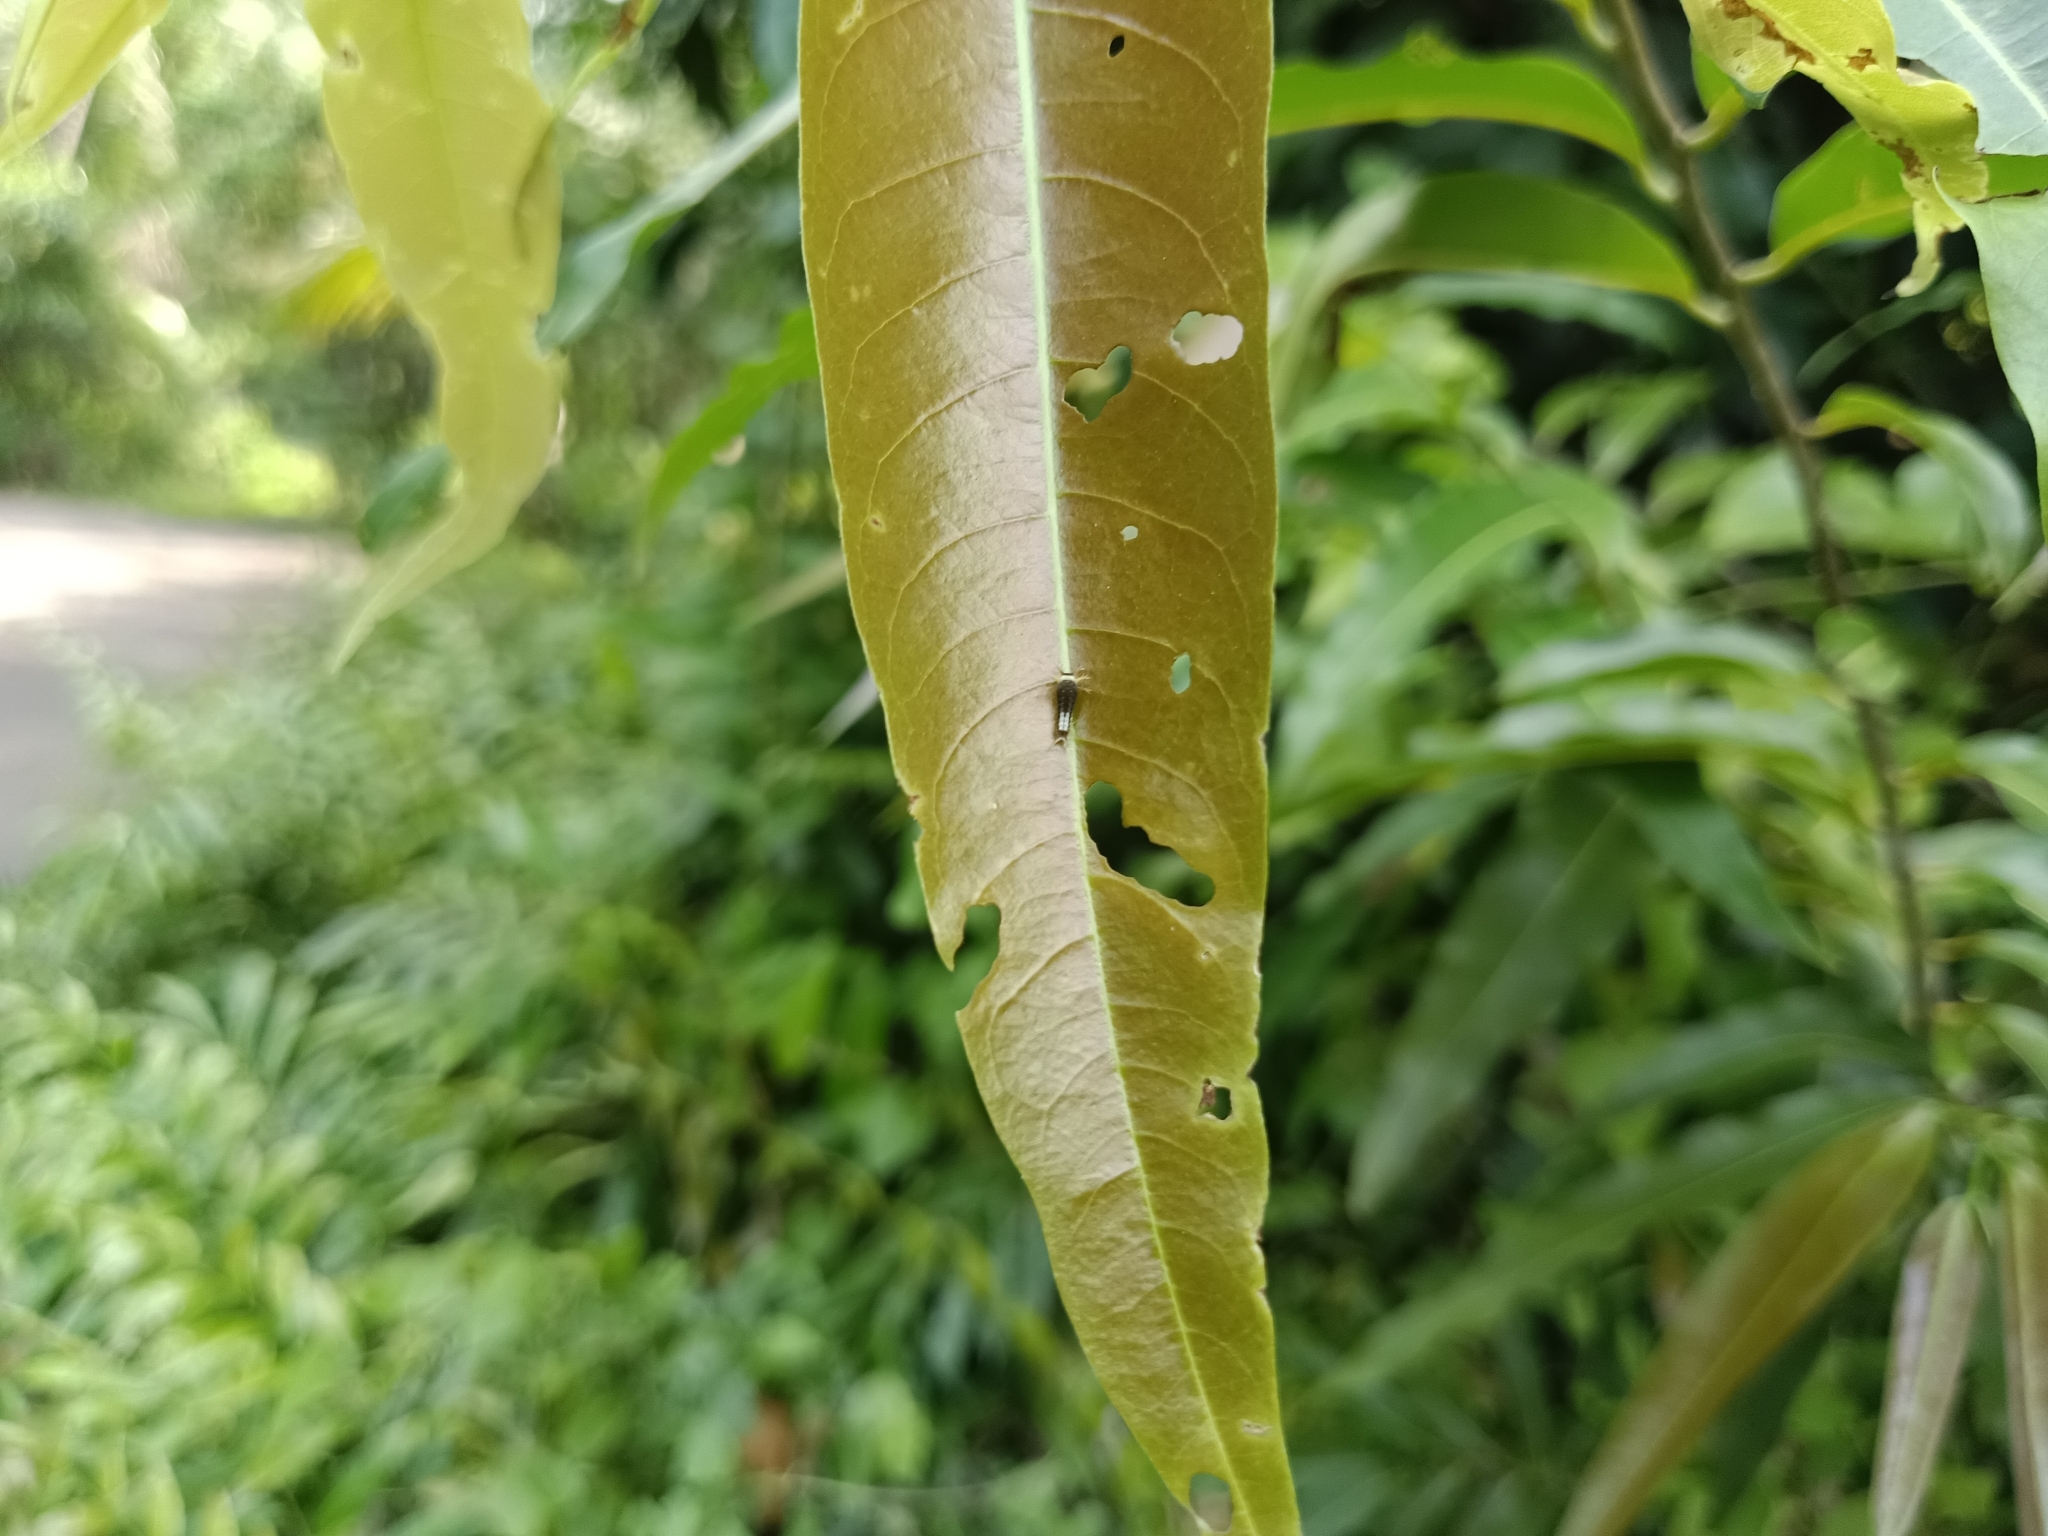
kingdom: Animalia
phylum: Arthropoda
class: Insecta
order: Lepidoptera
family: Papilionidae
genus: Graphium
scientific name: Graphium agamemnon
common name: Tailed jay
